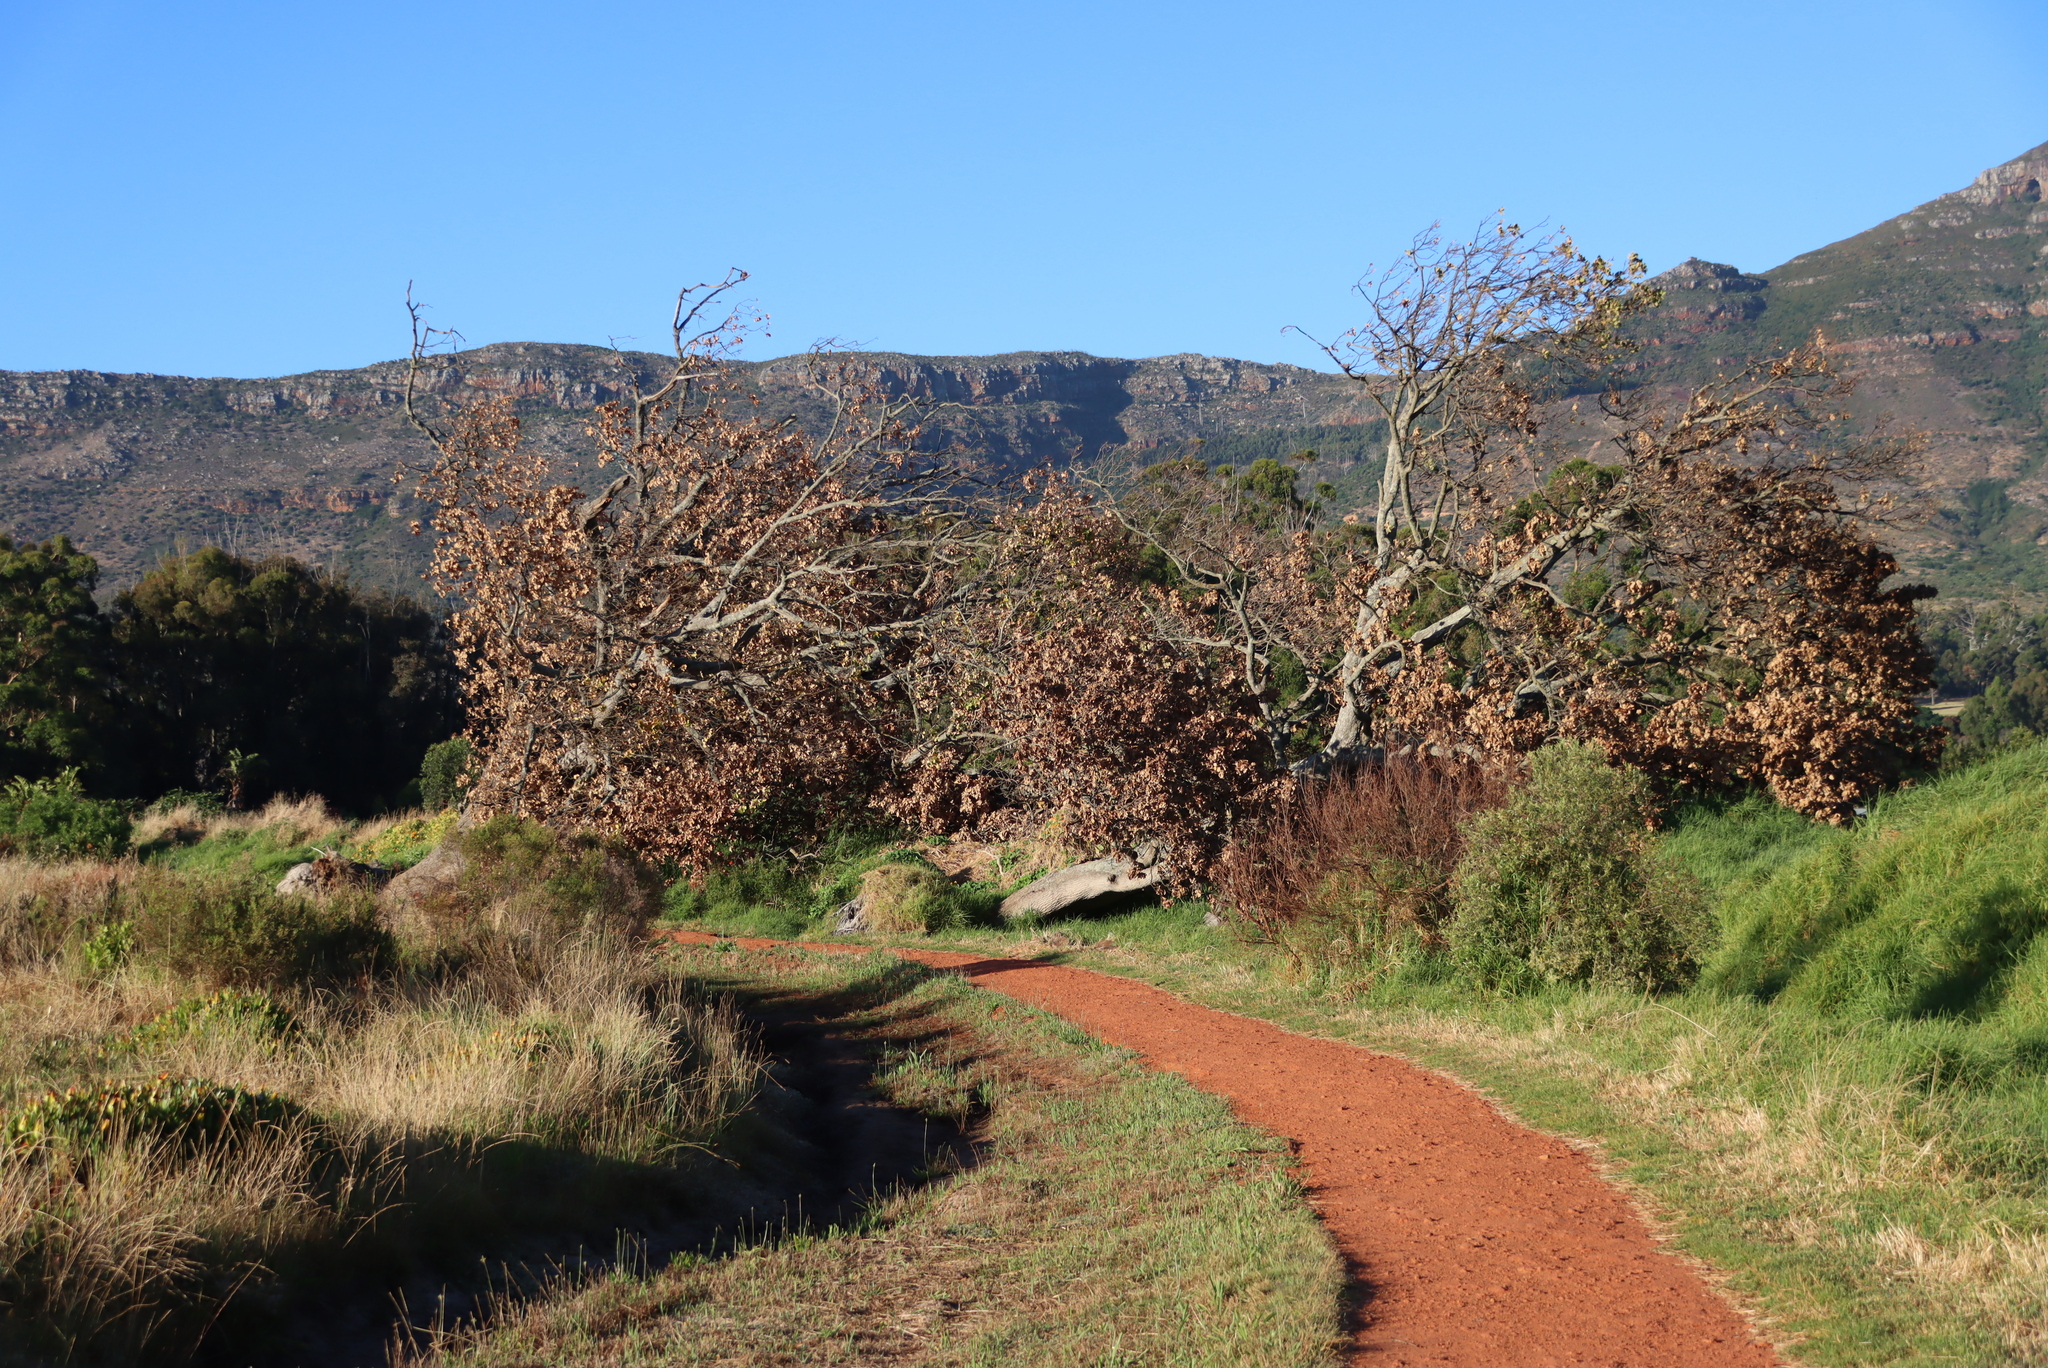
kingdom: Plantae
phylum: Tracheophyta
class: Magnoliopsida
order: Fagales
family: Fagaceae
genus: Quercus
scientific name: Quercus robur
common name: Pedunculate oak
